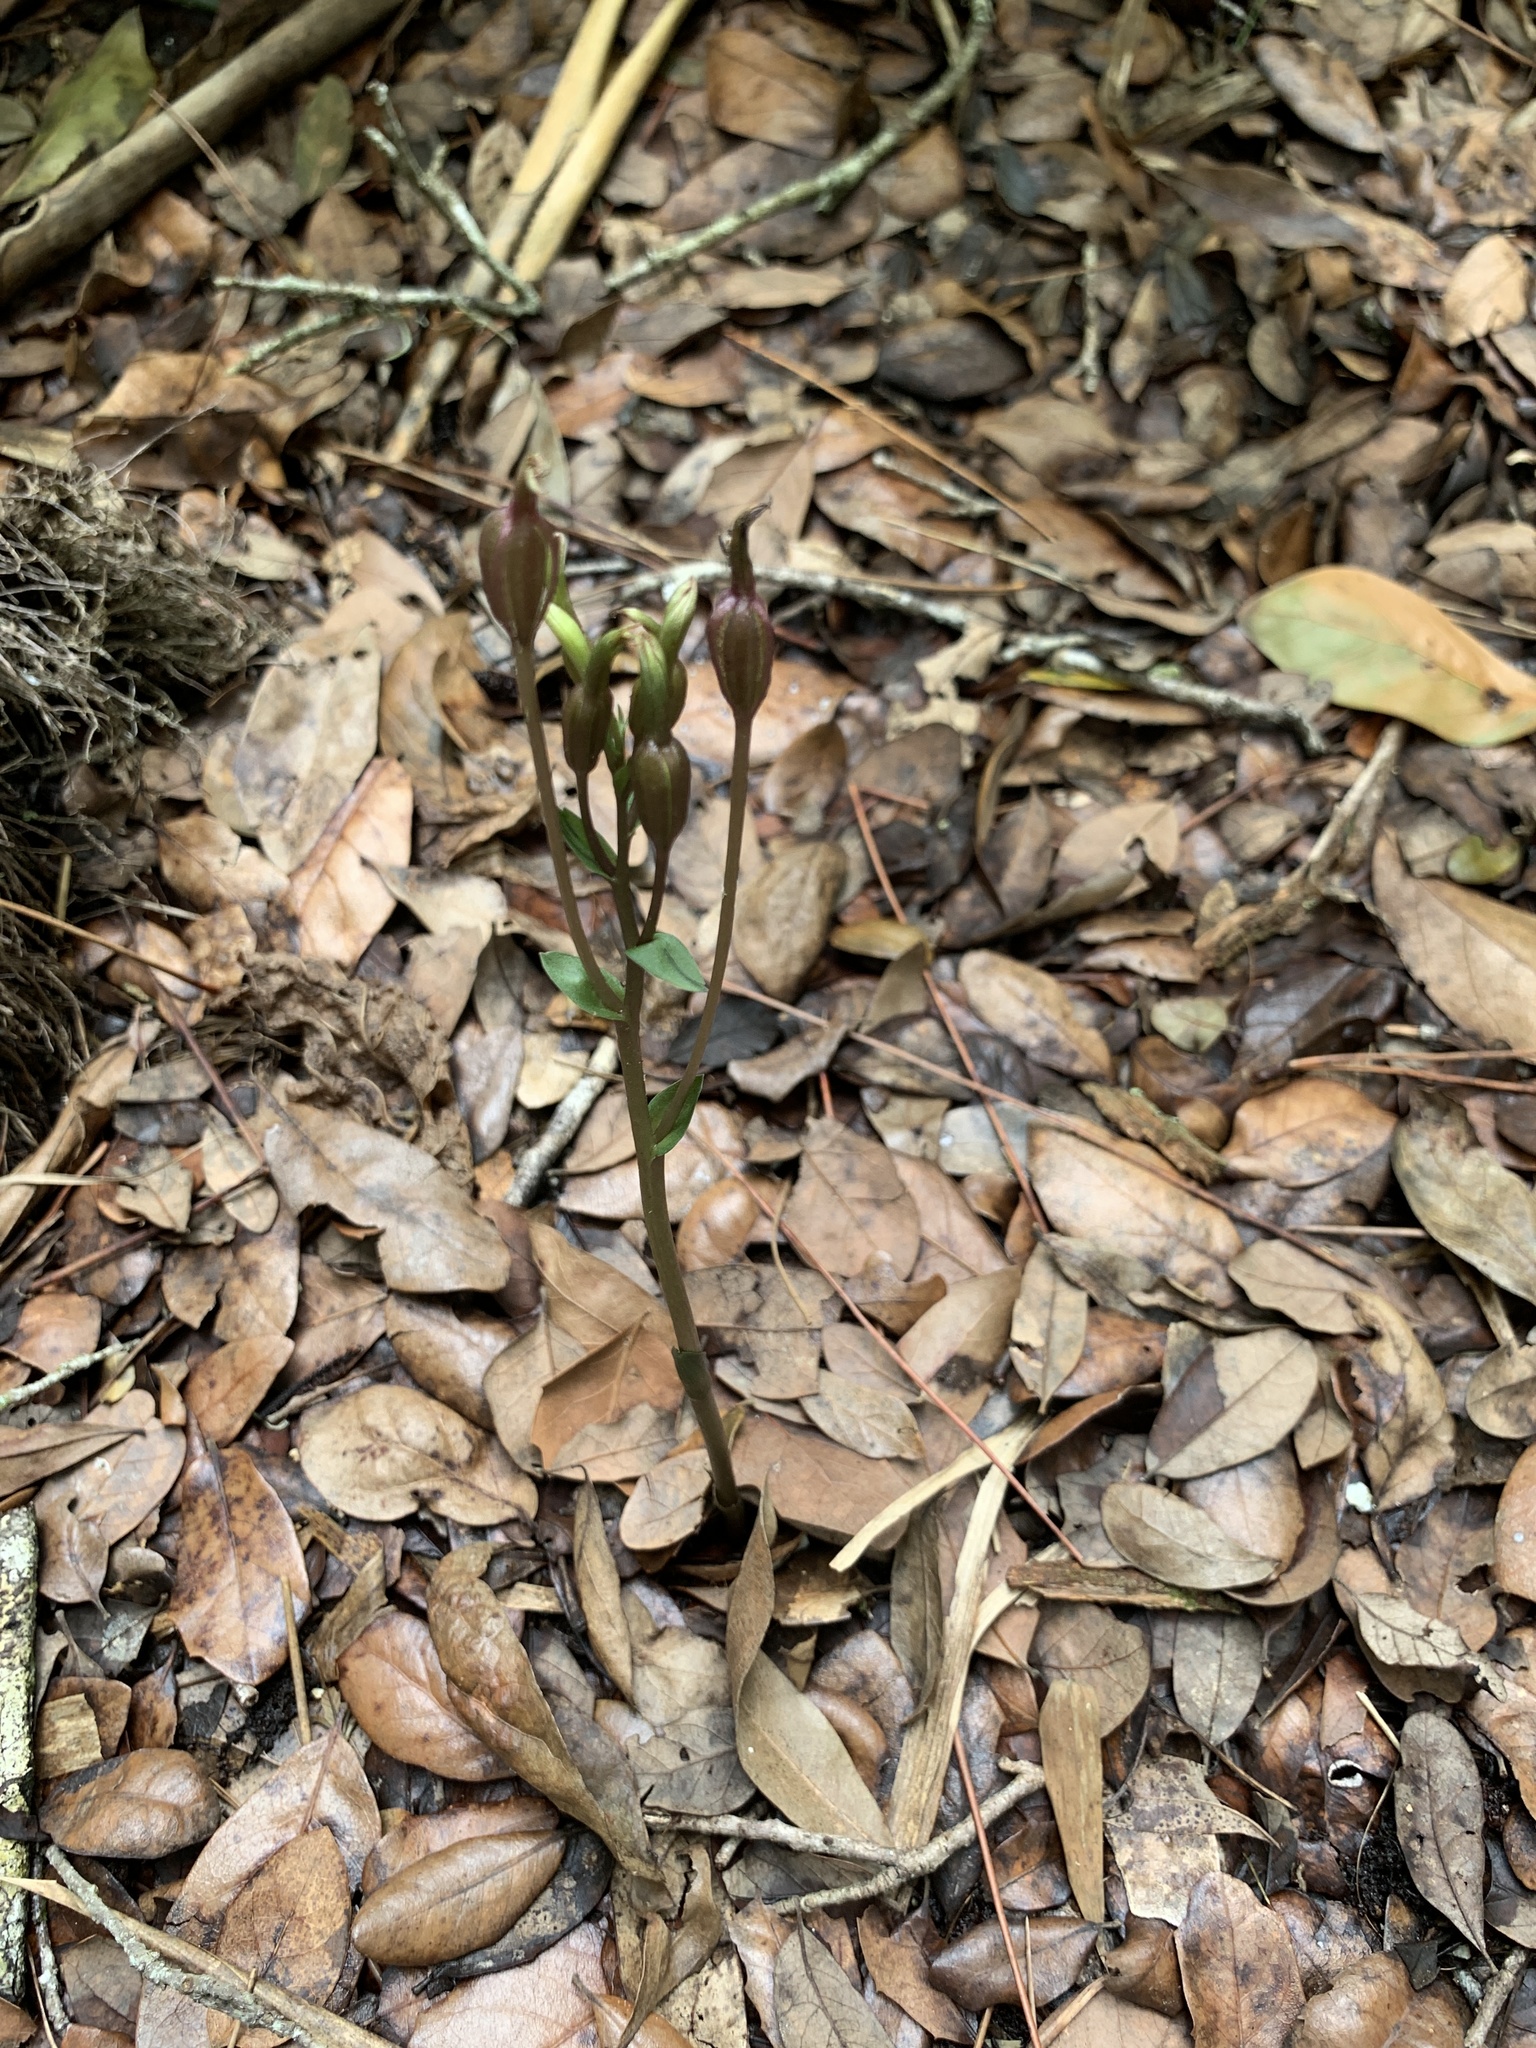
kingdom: Plantae
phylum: Tracheophyta
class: Liliopsida
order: Asparagales
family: Orchidaceae
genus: Triphora
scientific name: Triphora gentianoides
